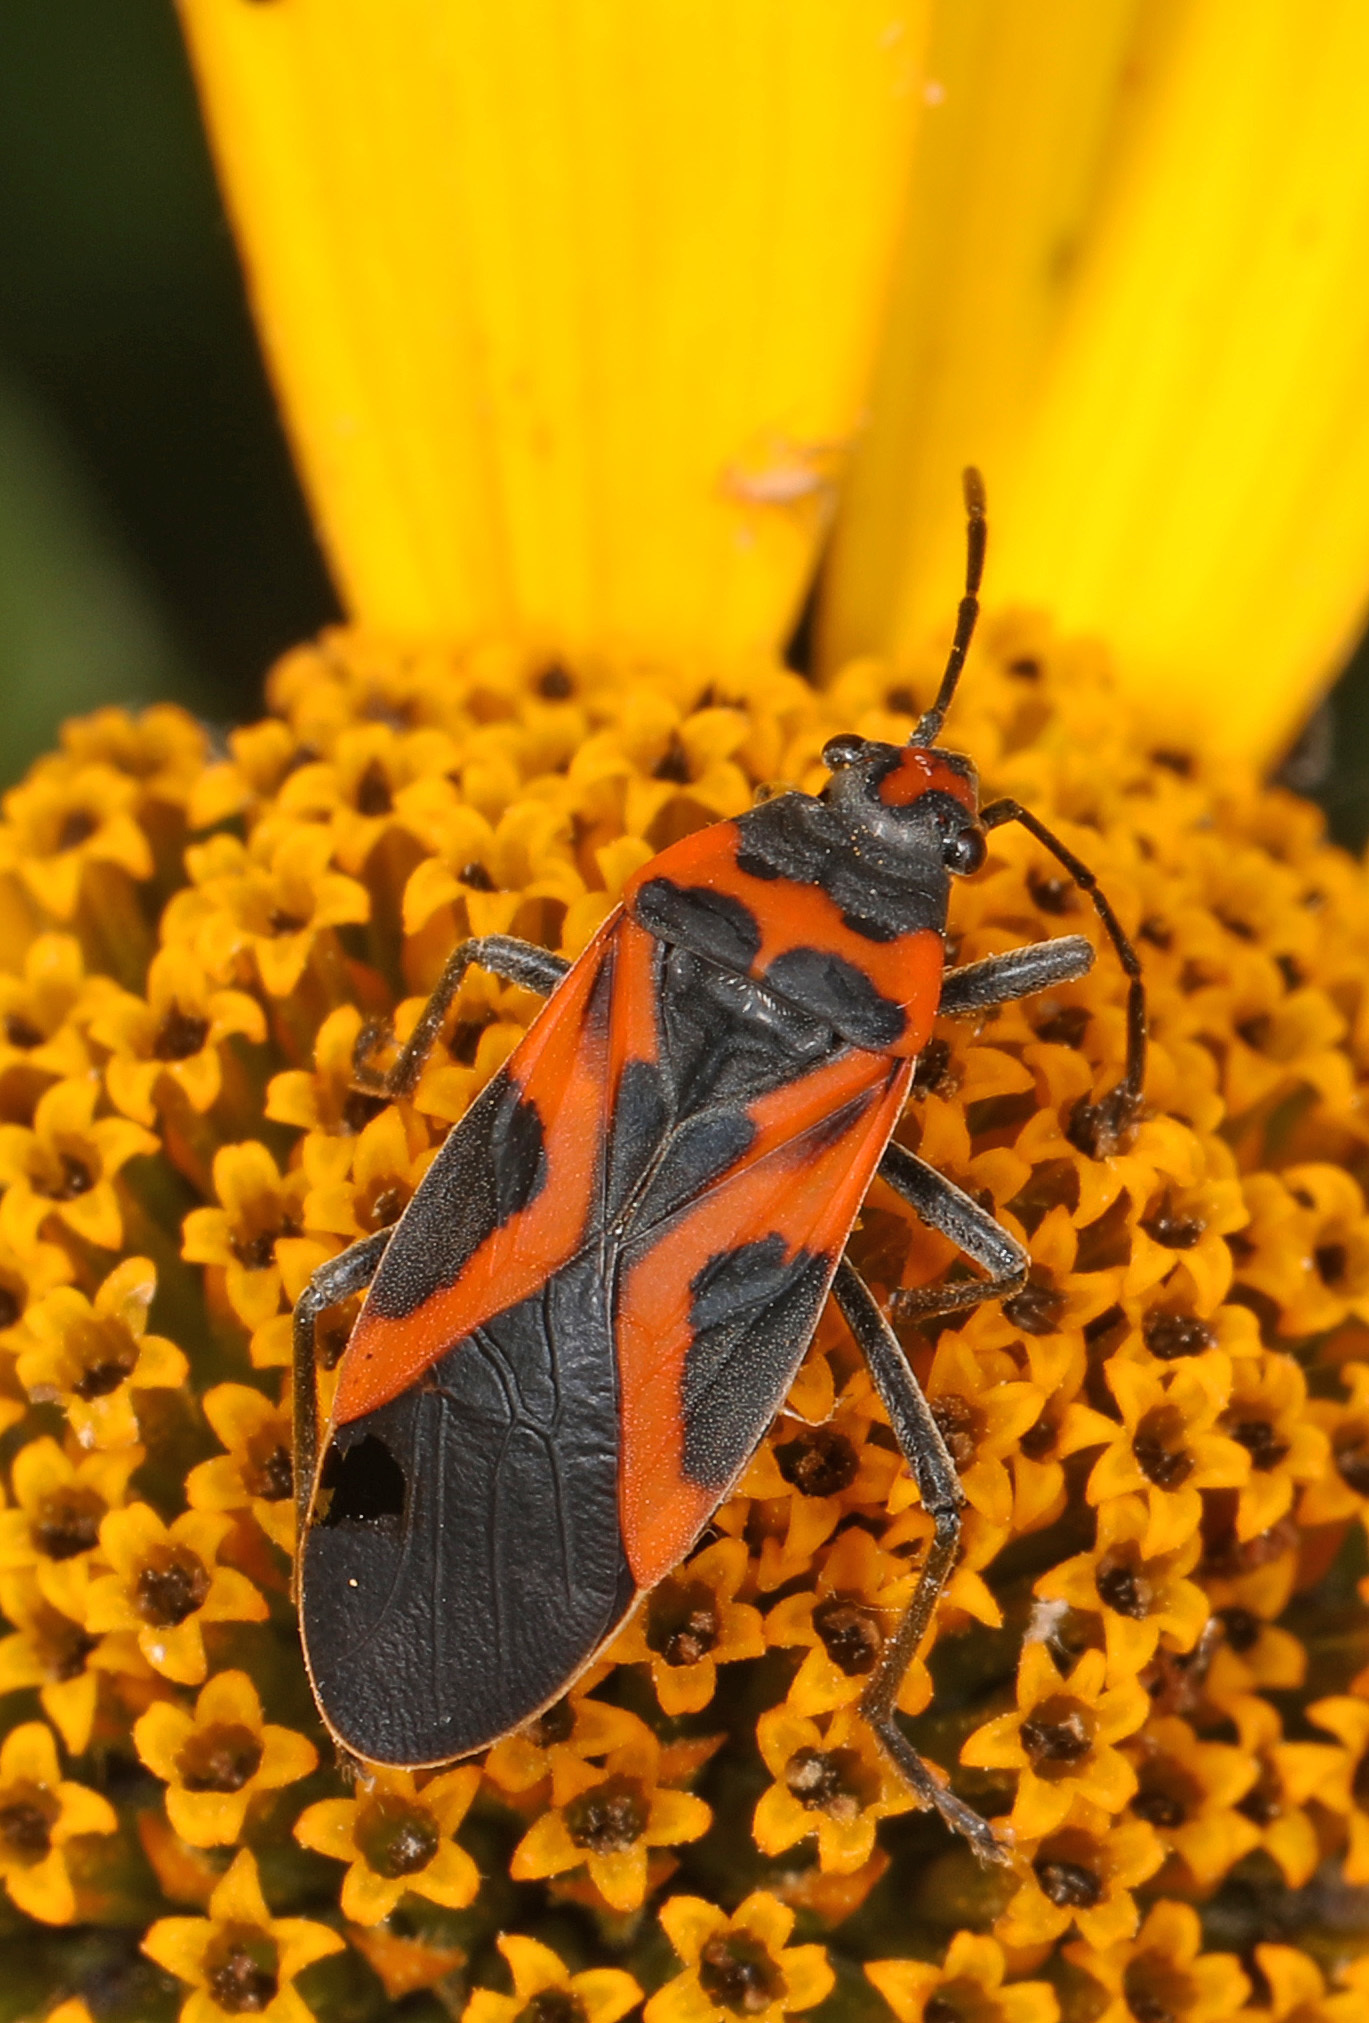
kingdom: Animalia
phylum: Arthropoda
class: Insecta
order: Hemiptera
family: Lygaeidae
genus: Lygaeus
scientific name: Lygaeus turcicus
